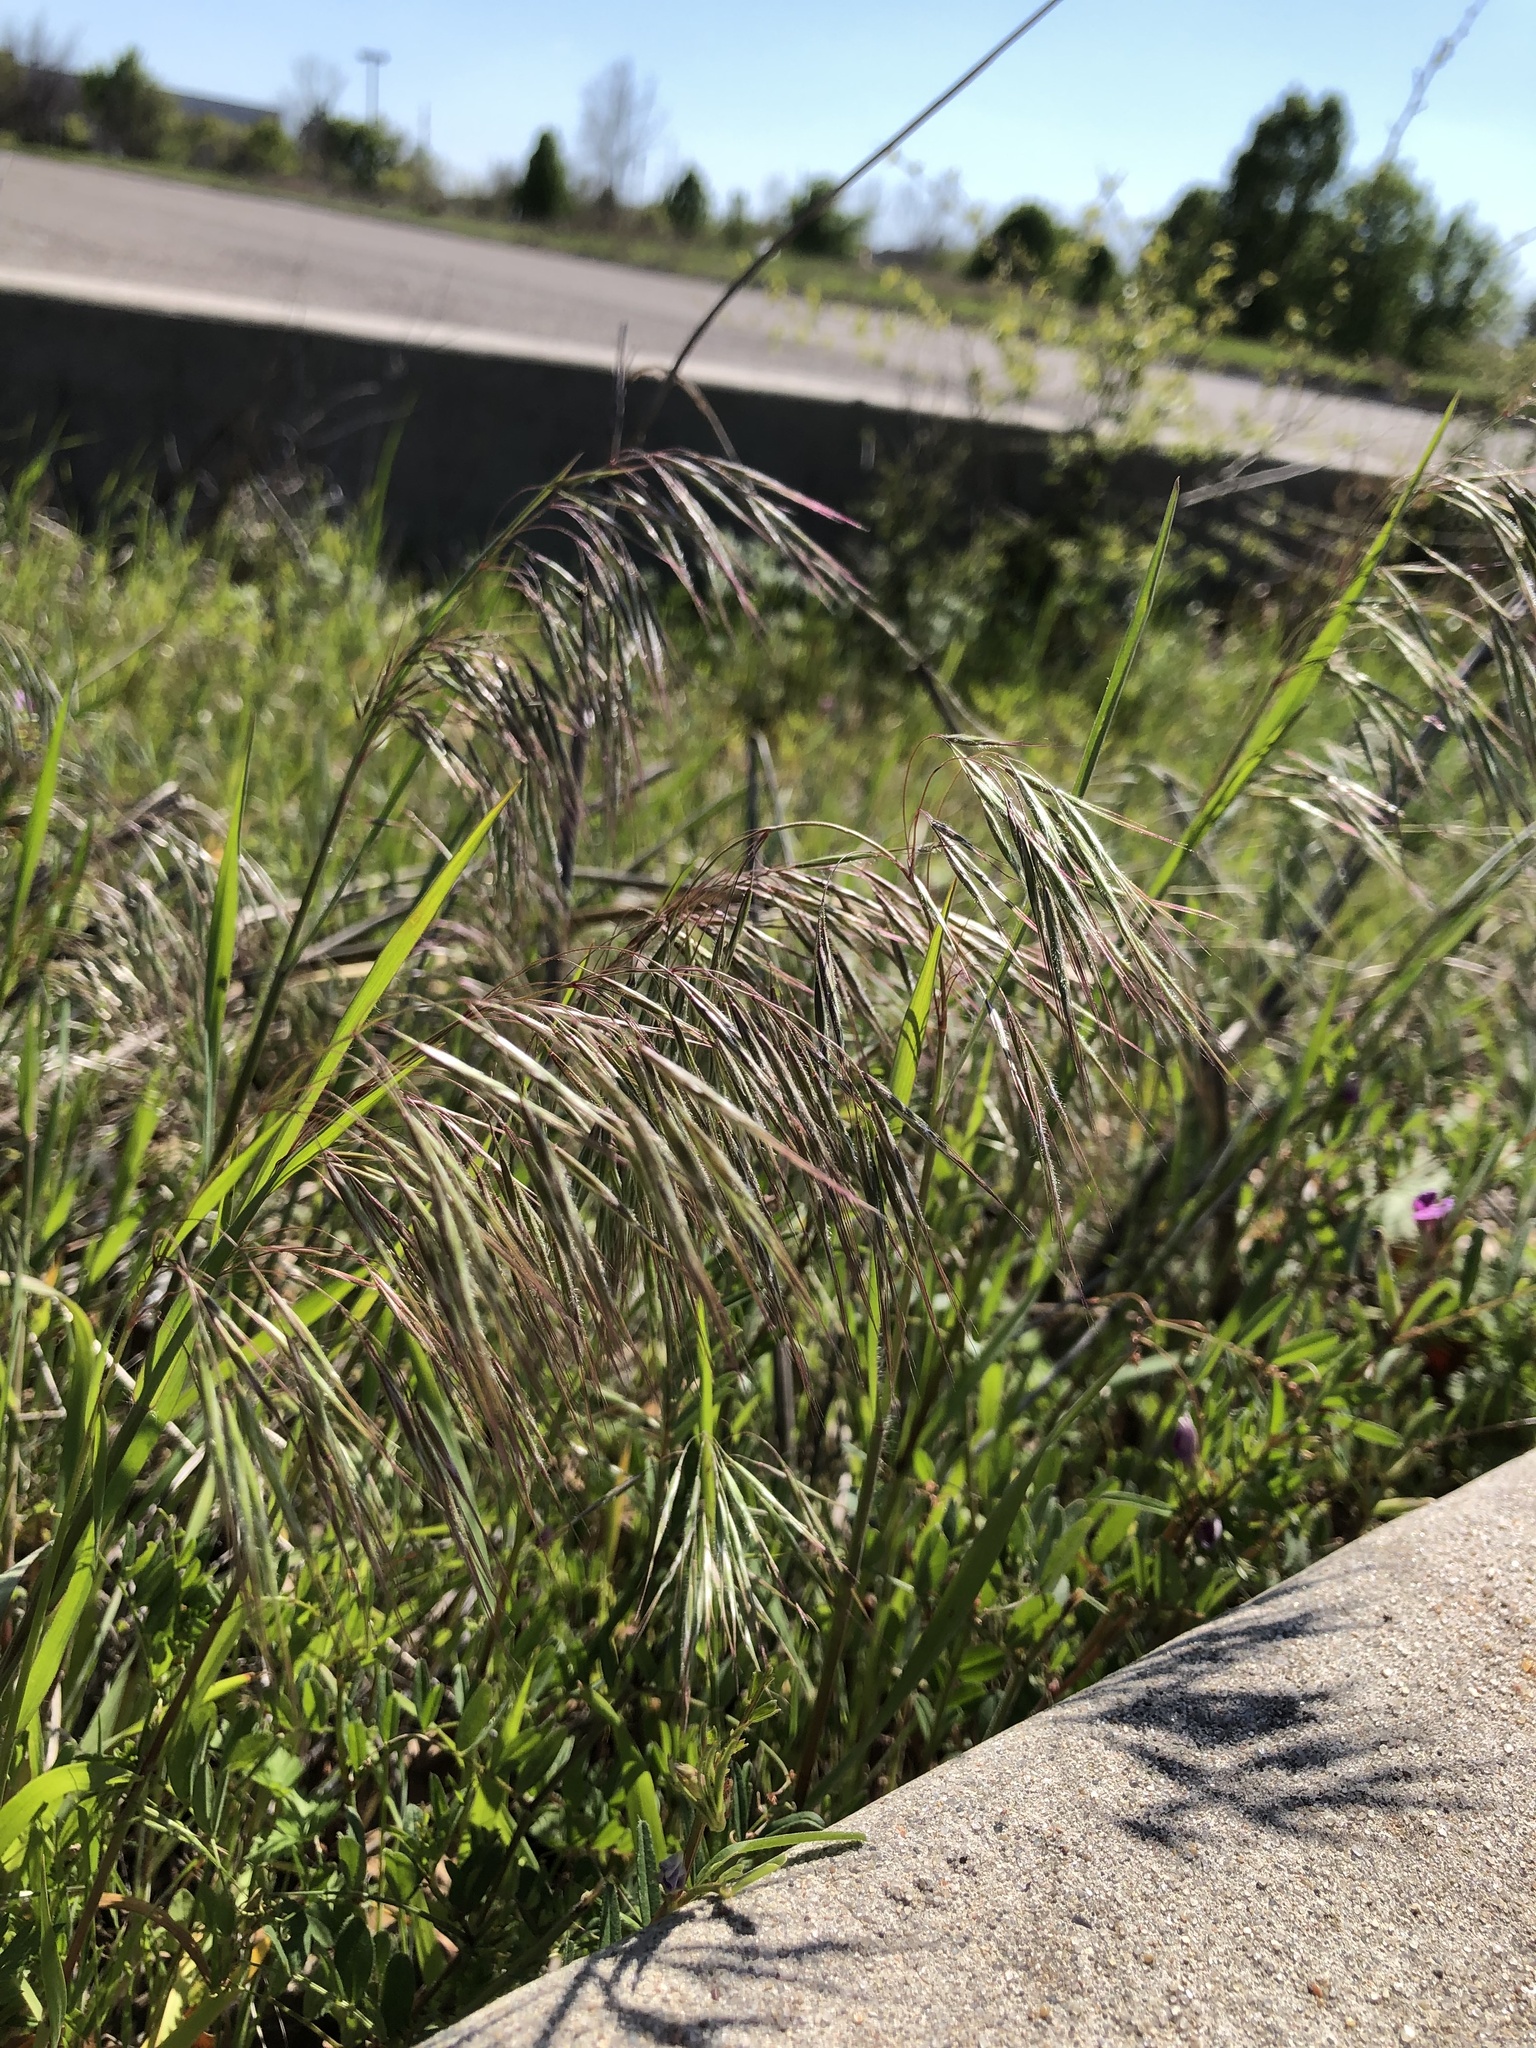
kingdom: Plantae
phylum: Tracheophyta
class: Liliopsida
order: Poales
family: Poaceae
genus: Bromus
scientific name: Bromus tectorum
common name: Cheatgrass
